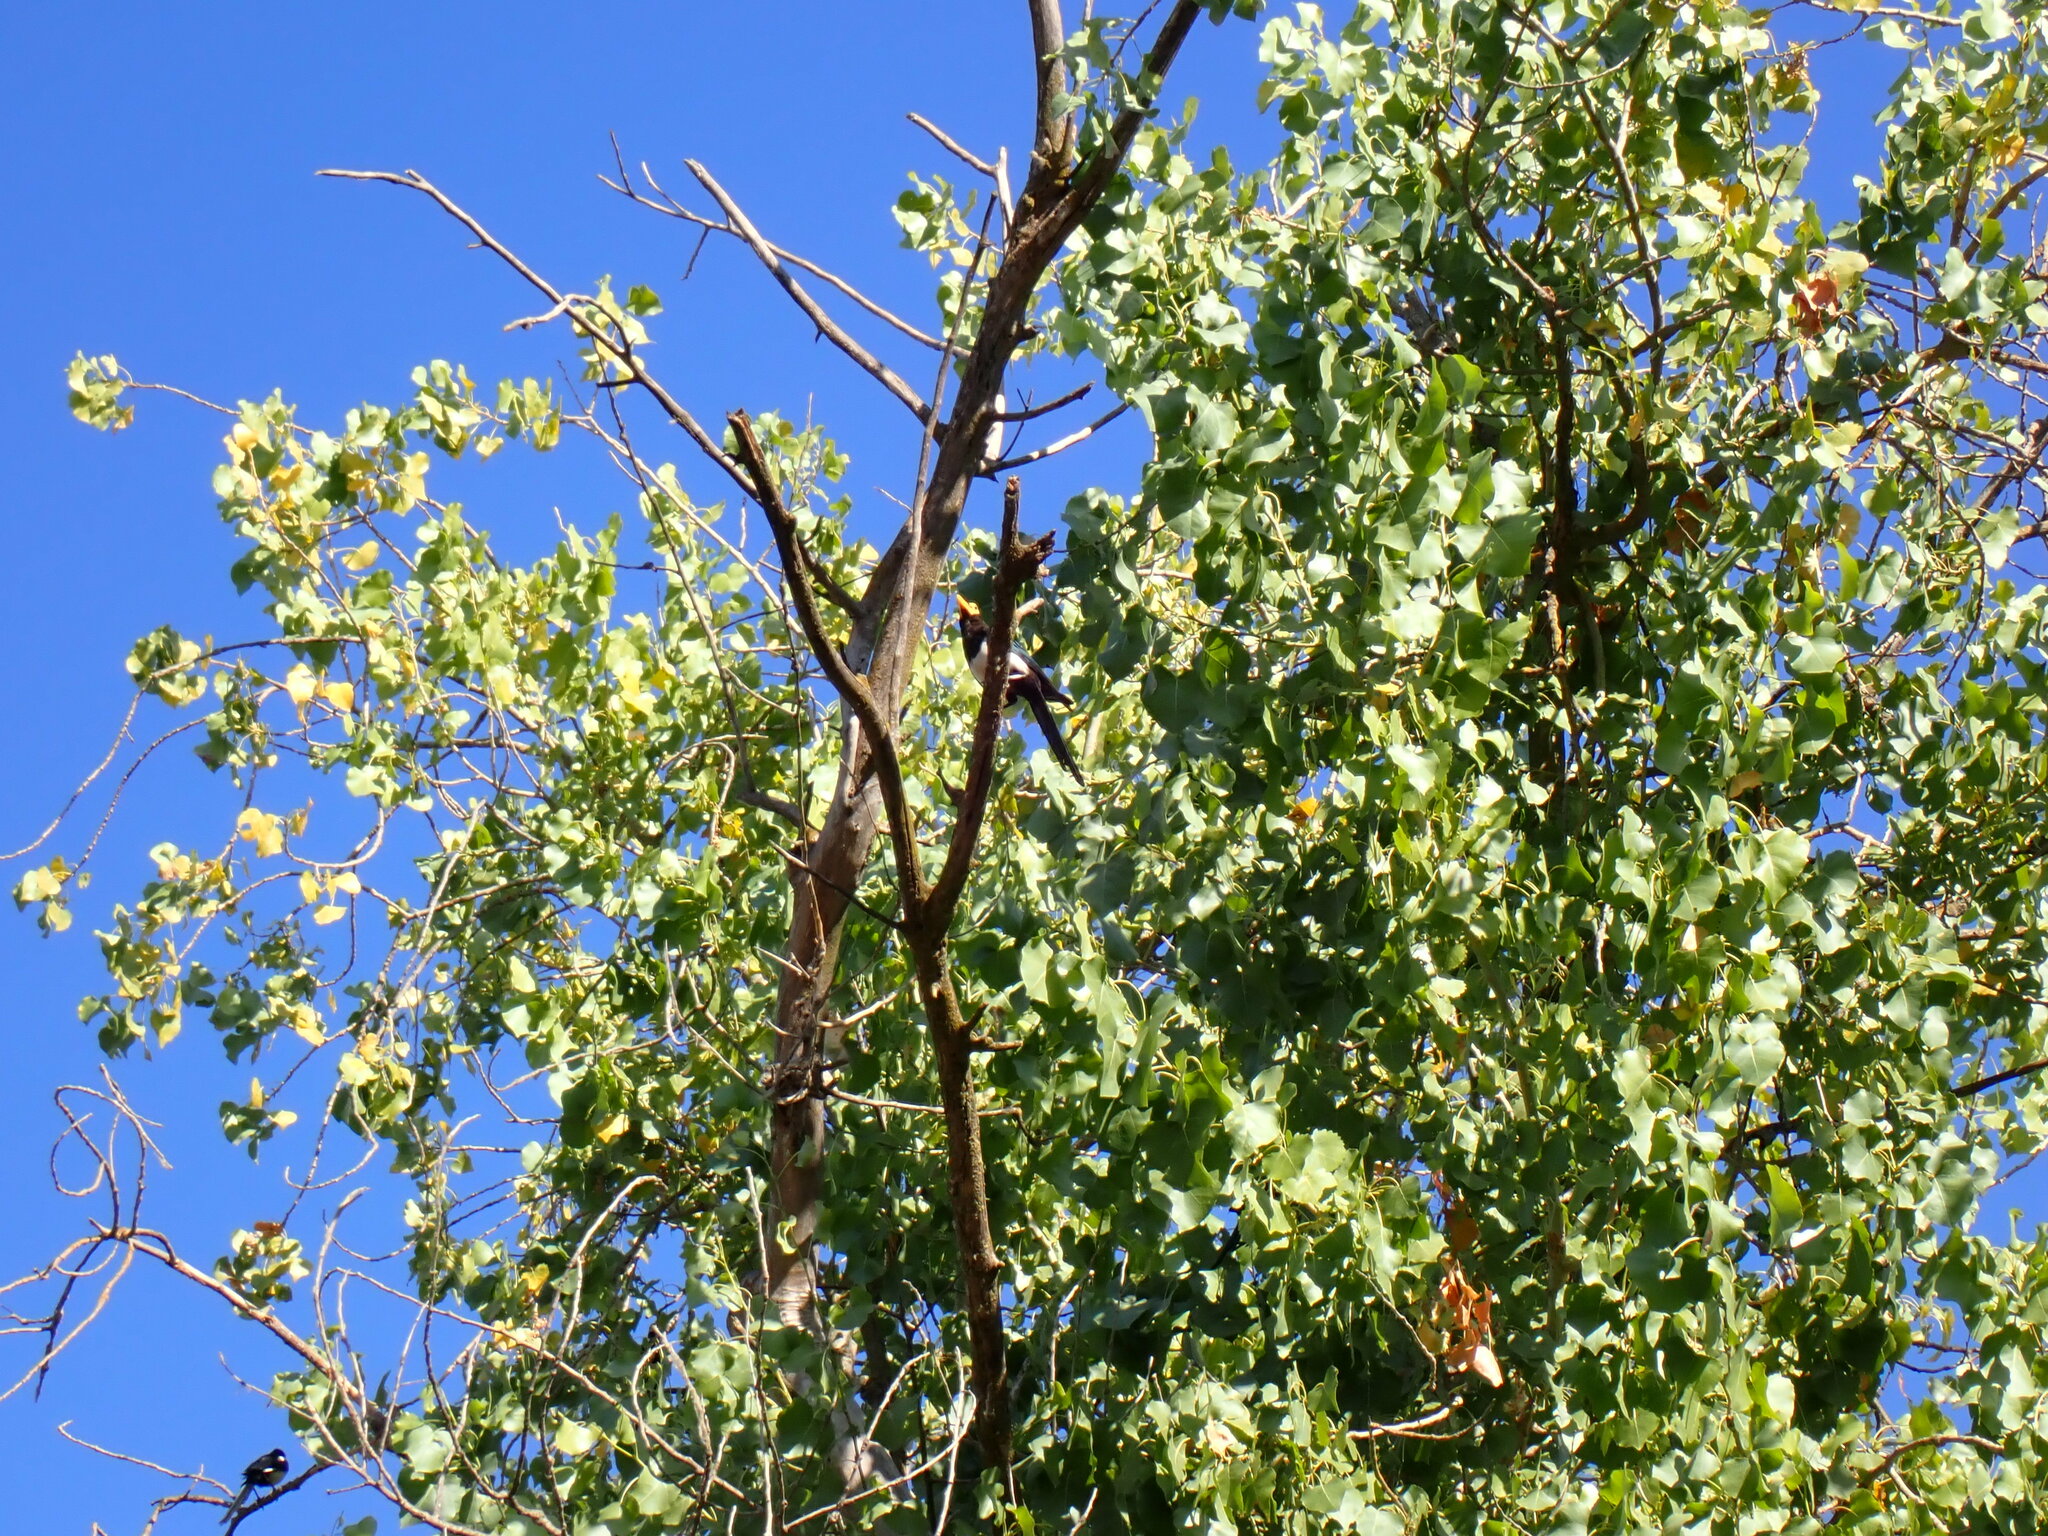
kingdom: Animalia
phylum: Chordata
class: Aves
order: Passeriformes
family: Corvidae
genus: Pica
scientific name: Pica nuttalli
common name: Yellow-billed magpie
